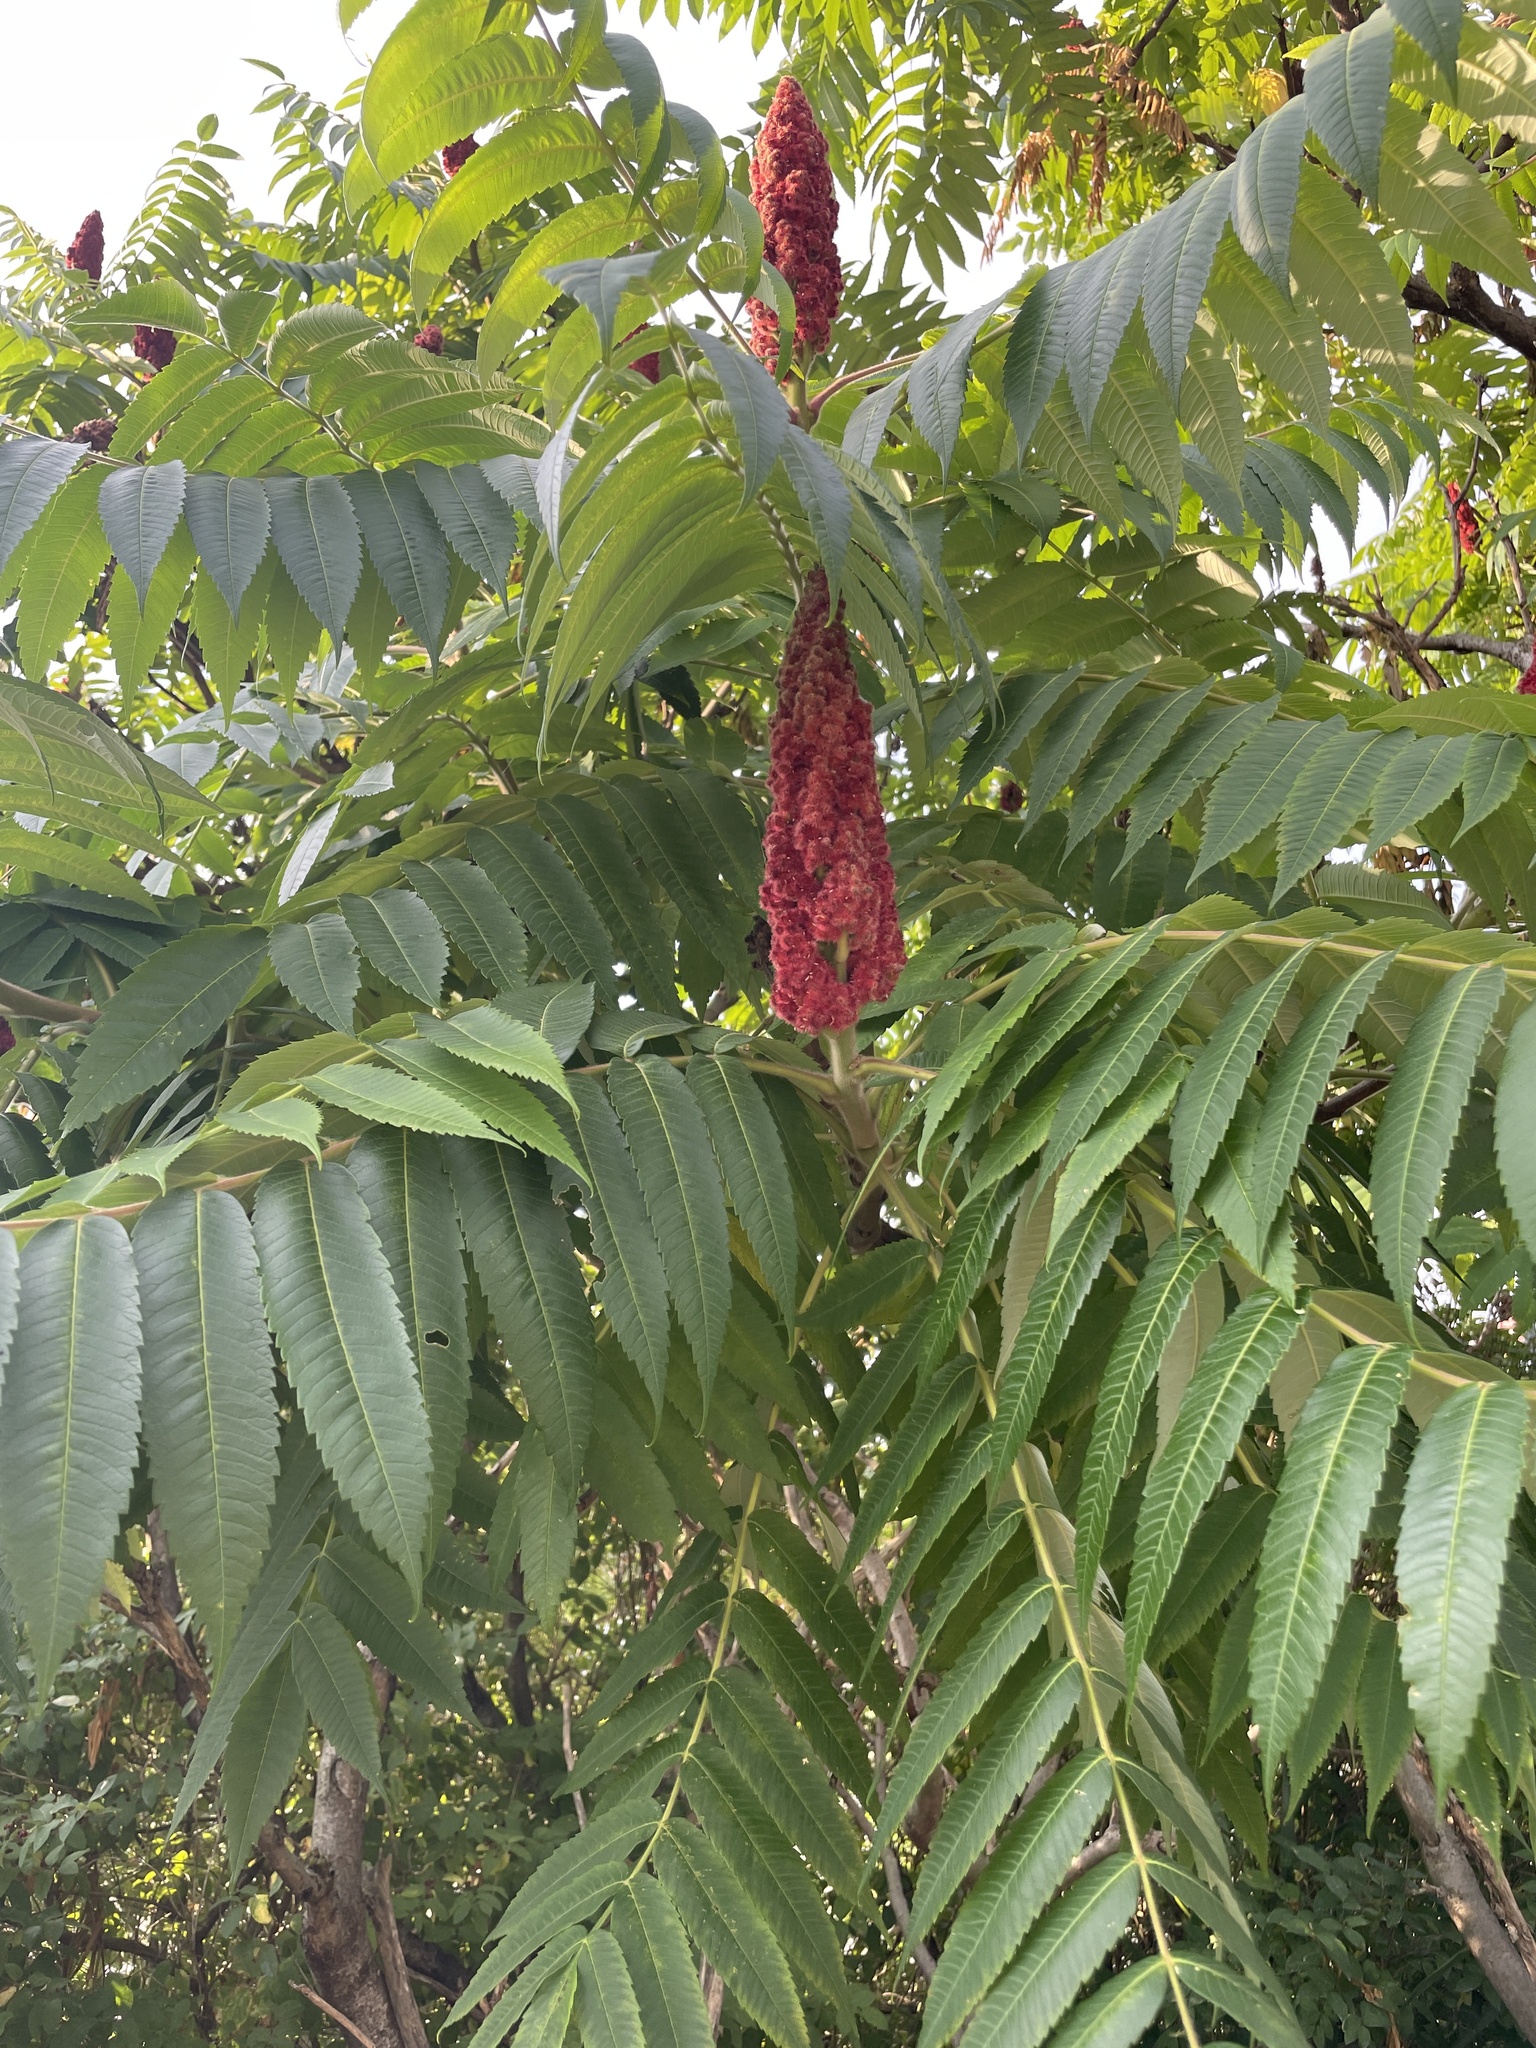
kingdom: Plantae
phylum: Tracheophyta
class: Magnoliopsida
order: Sapindales
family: Anacardiaceae
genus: Rhus
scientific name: Rhus typhina
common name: Staghorn sumac
